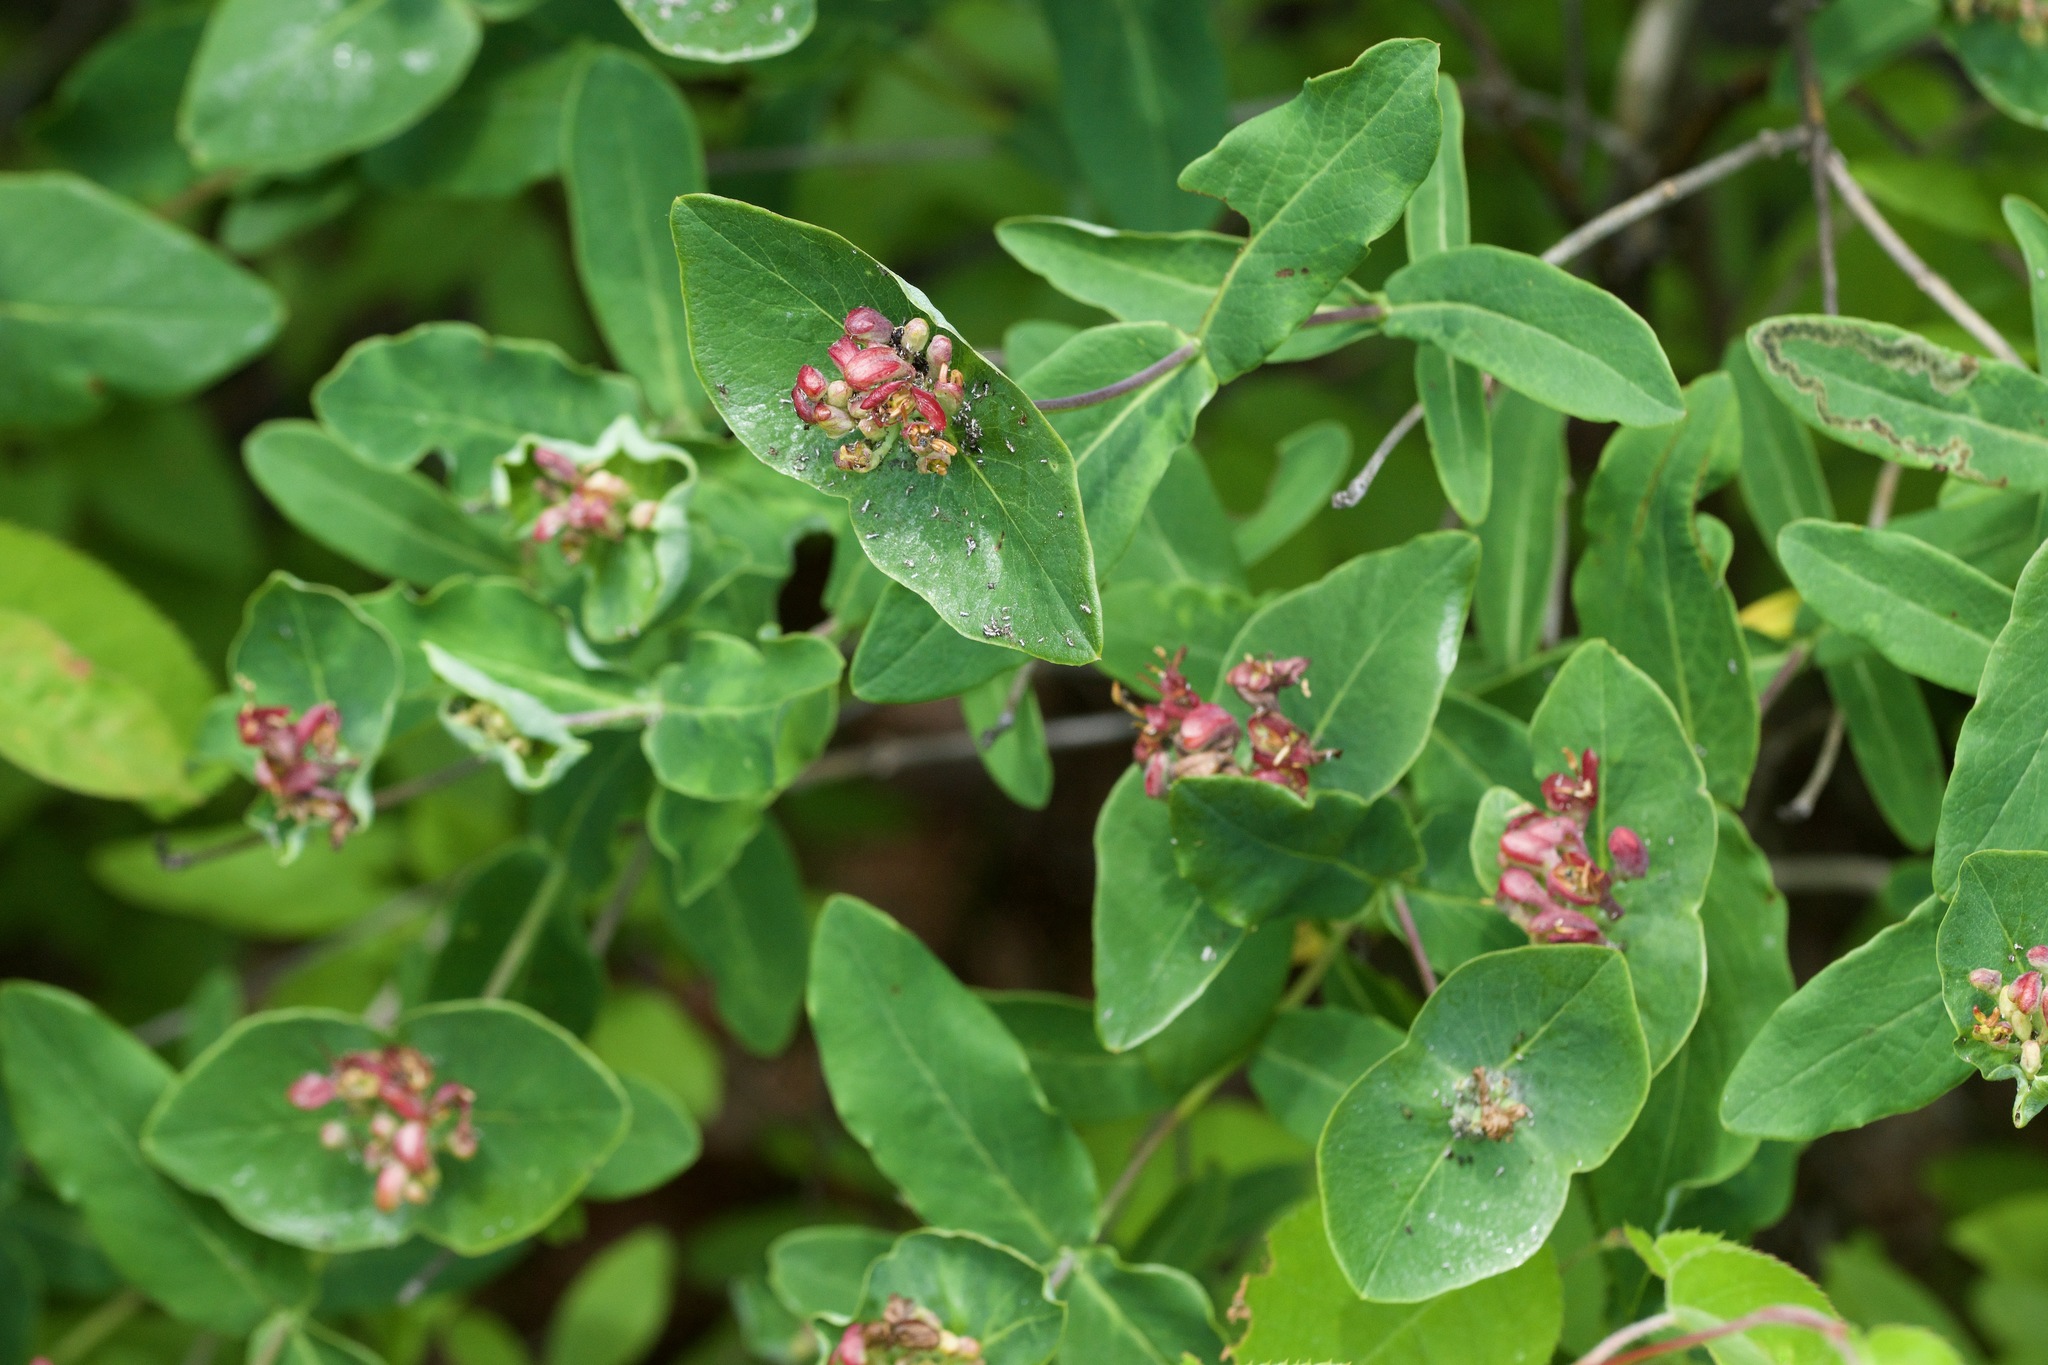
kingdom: Plantae
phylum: Tracheophyta
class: Magnoliopsida
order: Dipsacales
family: Caprifoliaceae
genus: Lonicera
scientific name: Lonicera dioica
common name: Limber honeysuckle
